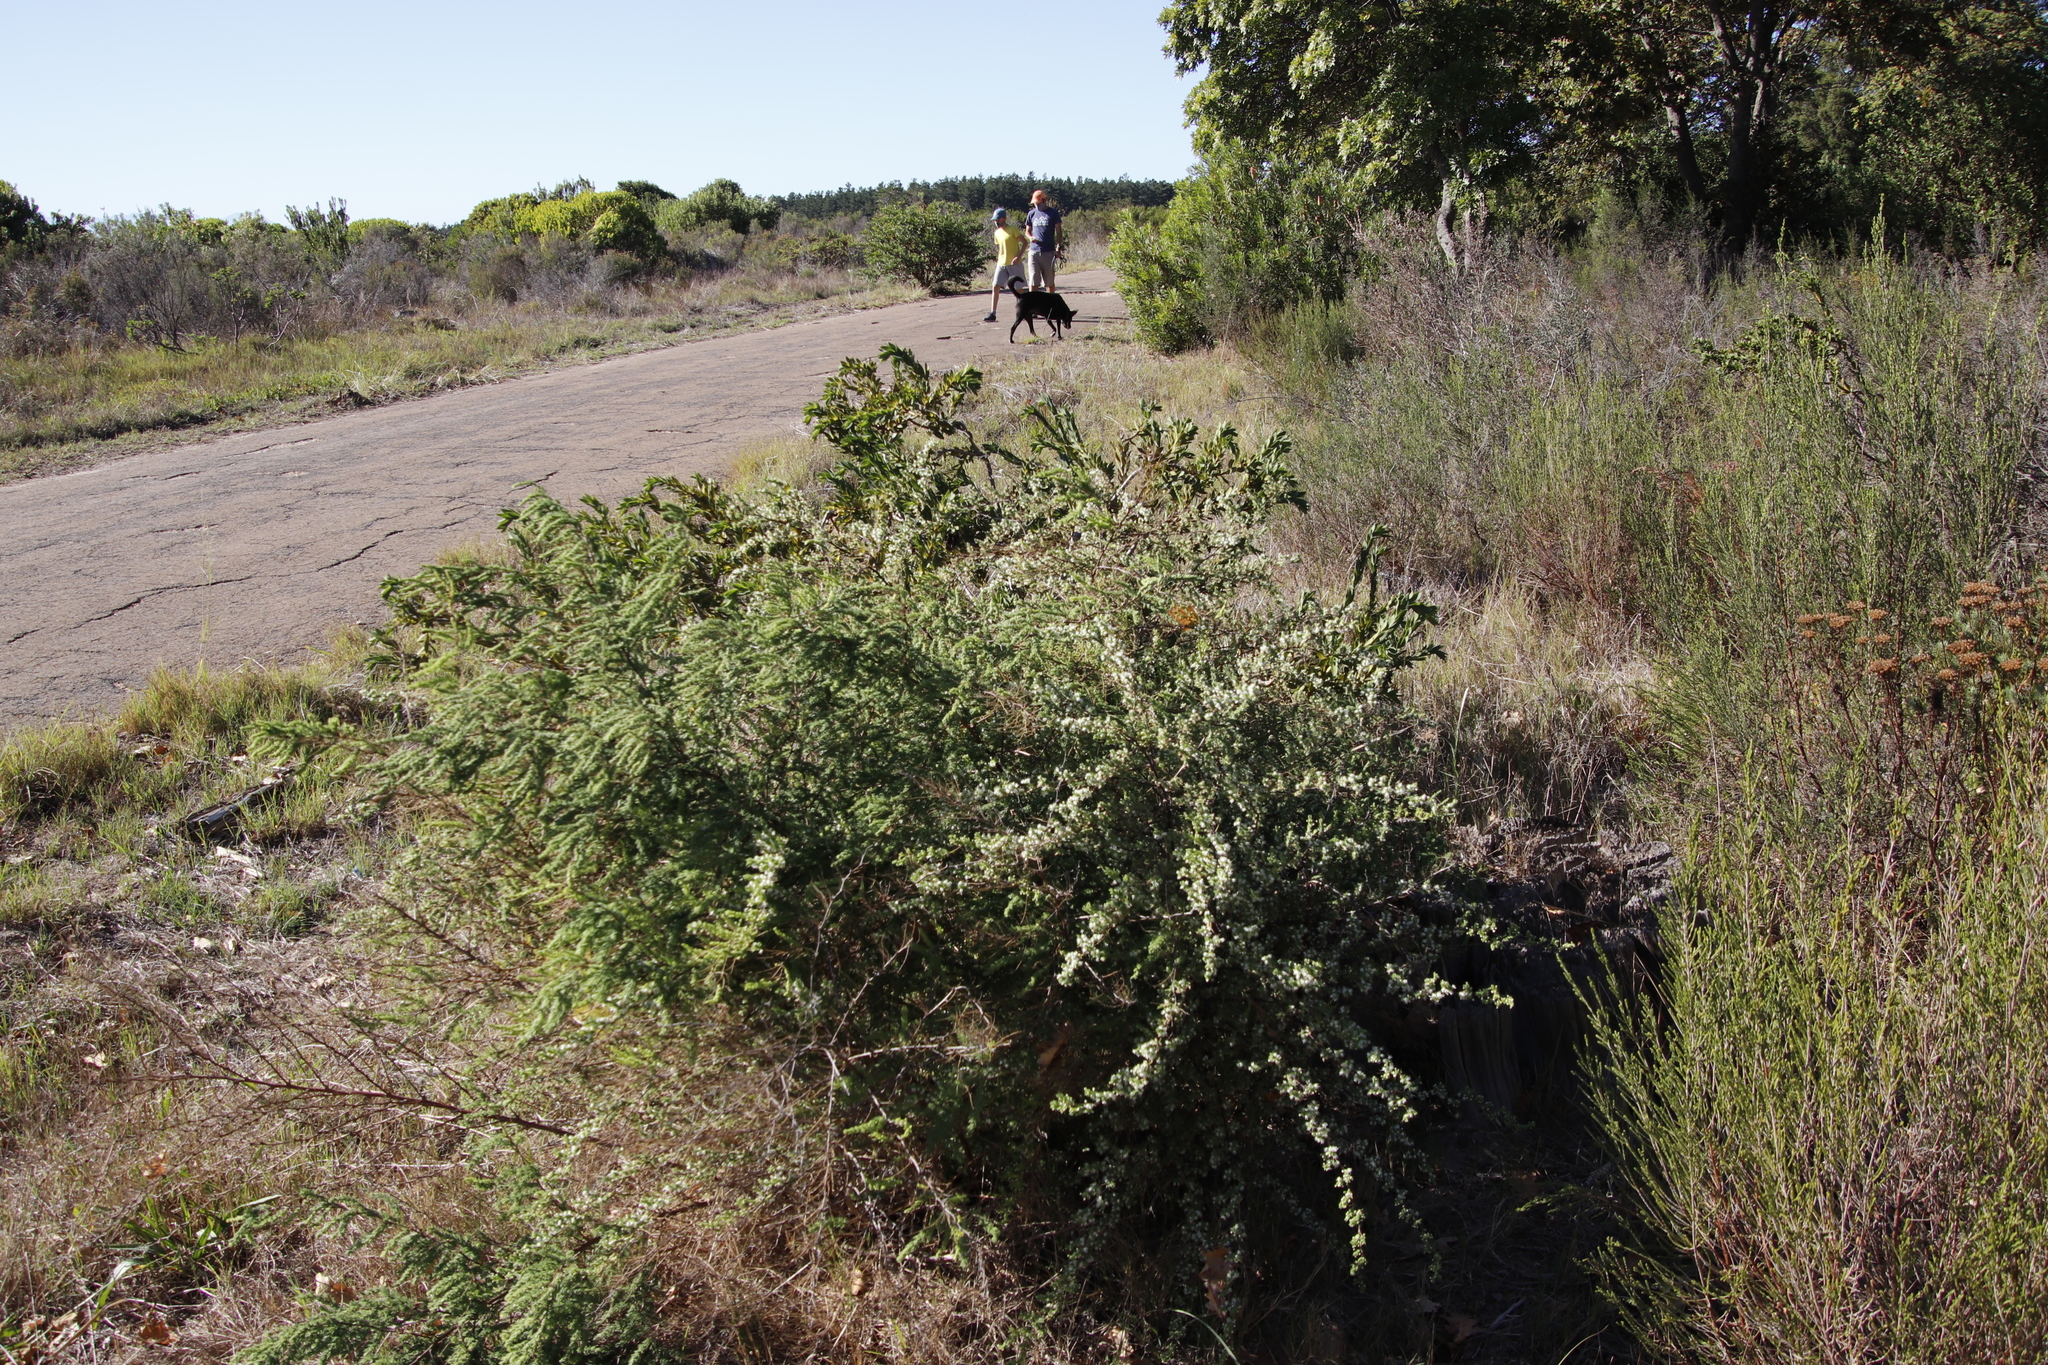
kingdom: Plantae
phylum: Tracheophyta
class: Liliopsida
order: Asparagales
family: Asparagaceae
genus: Asparagus
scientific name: Asparagus rubicundus
